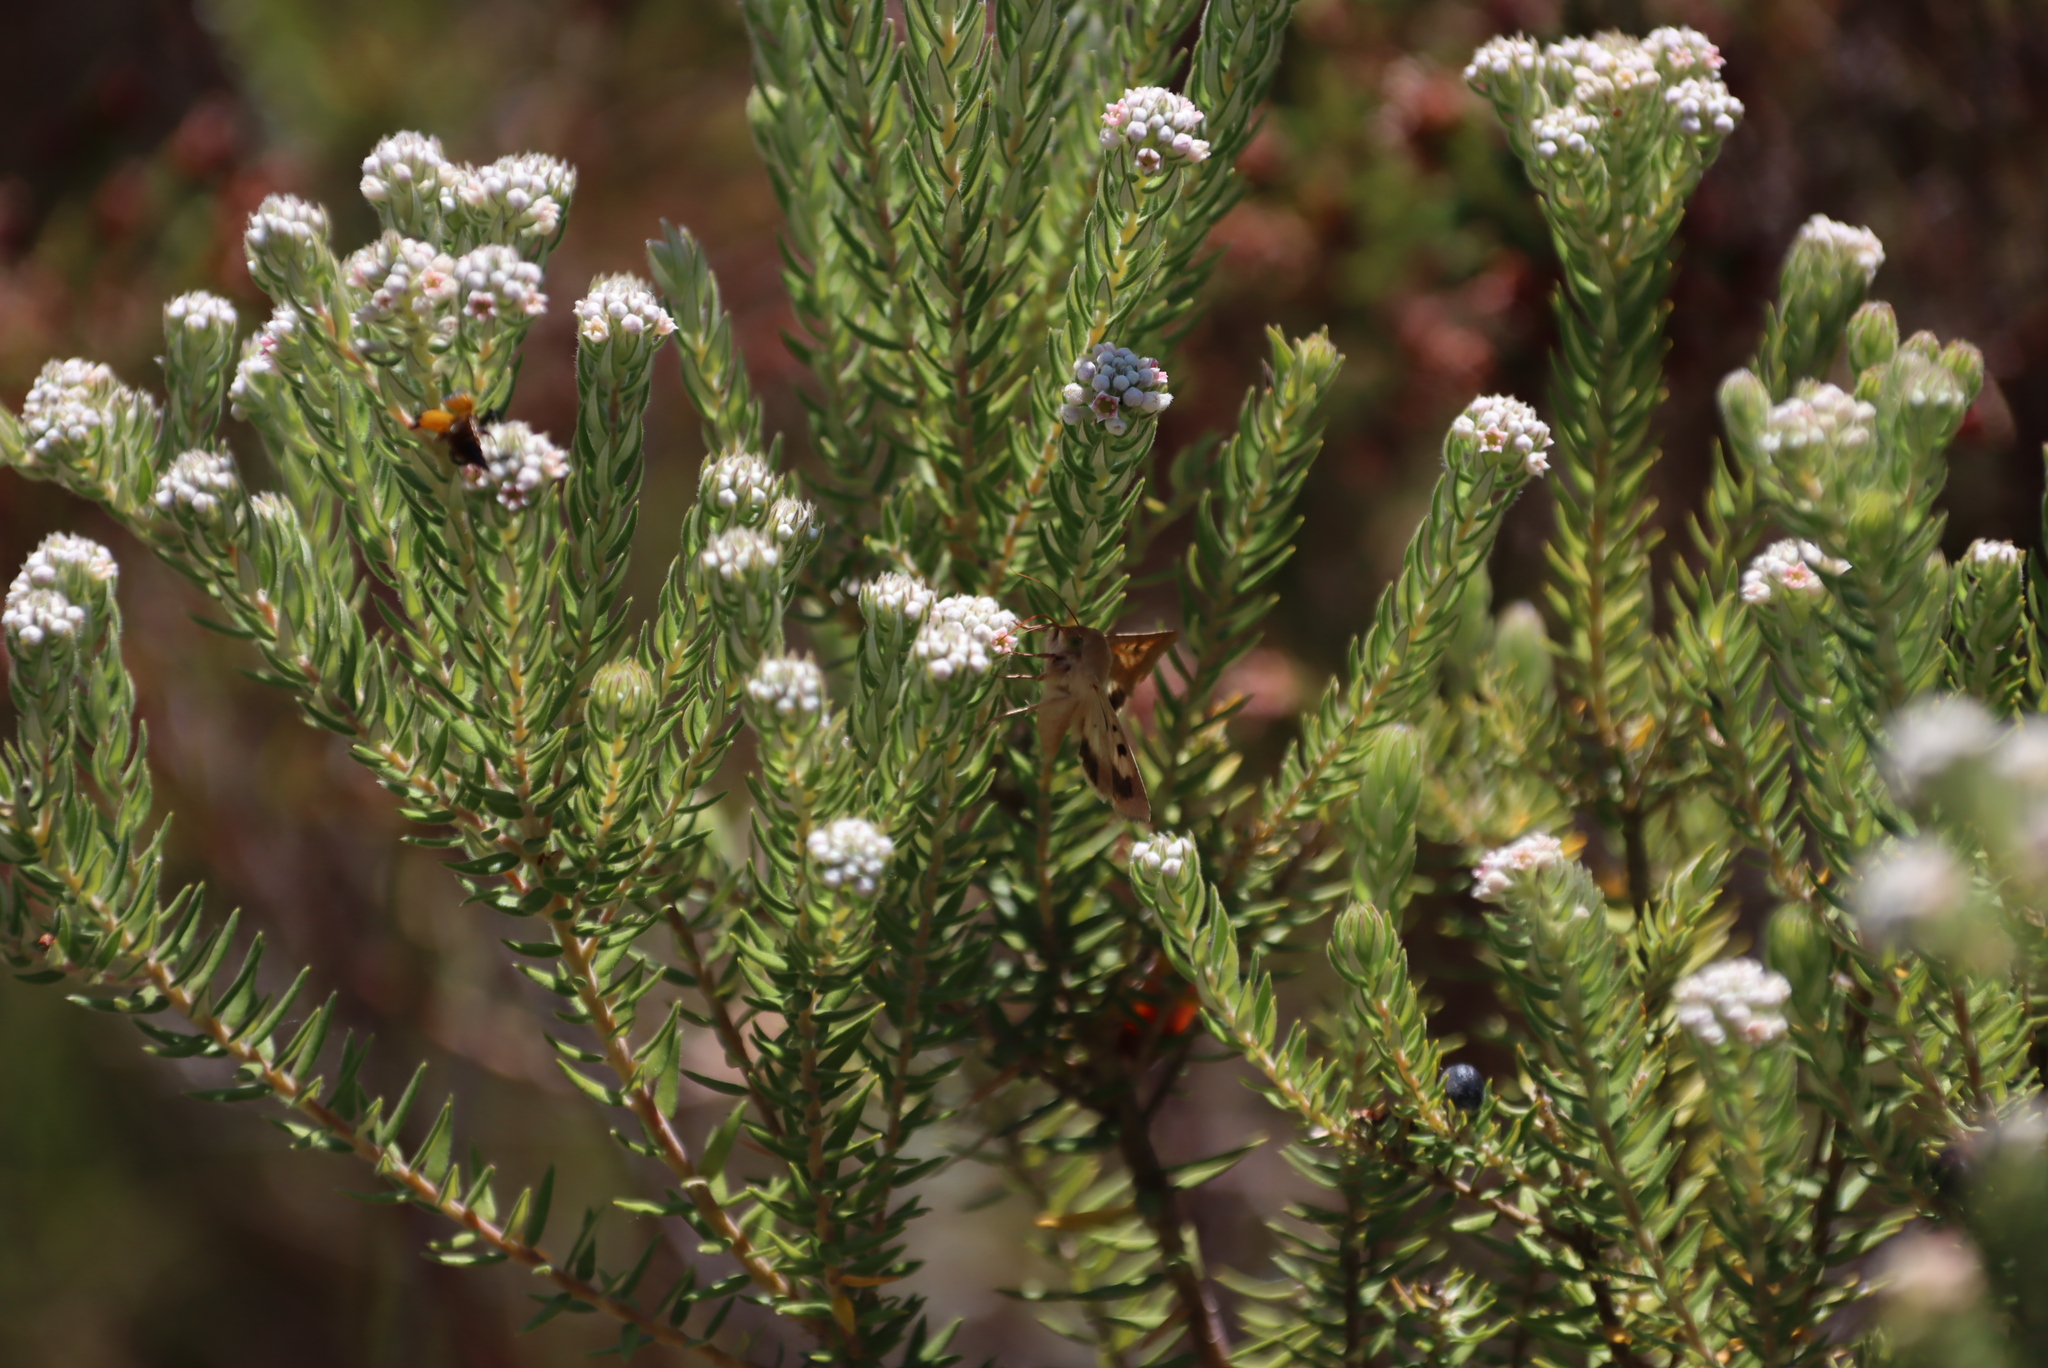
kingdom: Plantae
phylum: Tracheophyta
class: Magnoliopsida
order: Rosales
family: Rhamnaceae
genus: Phylica
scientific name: Phylica pinea
